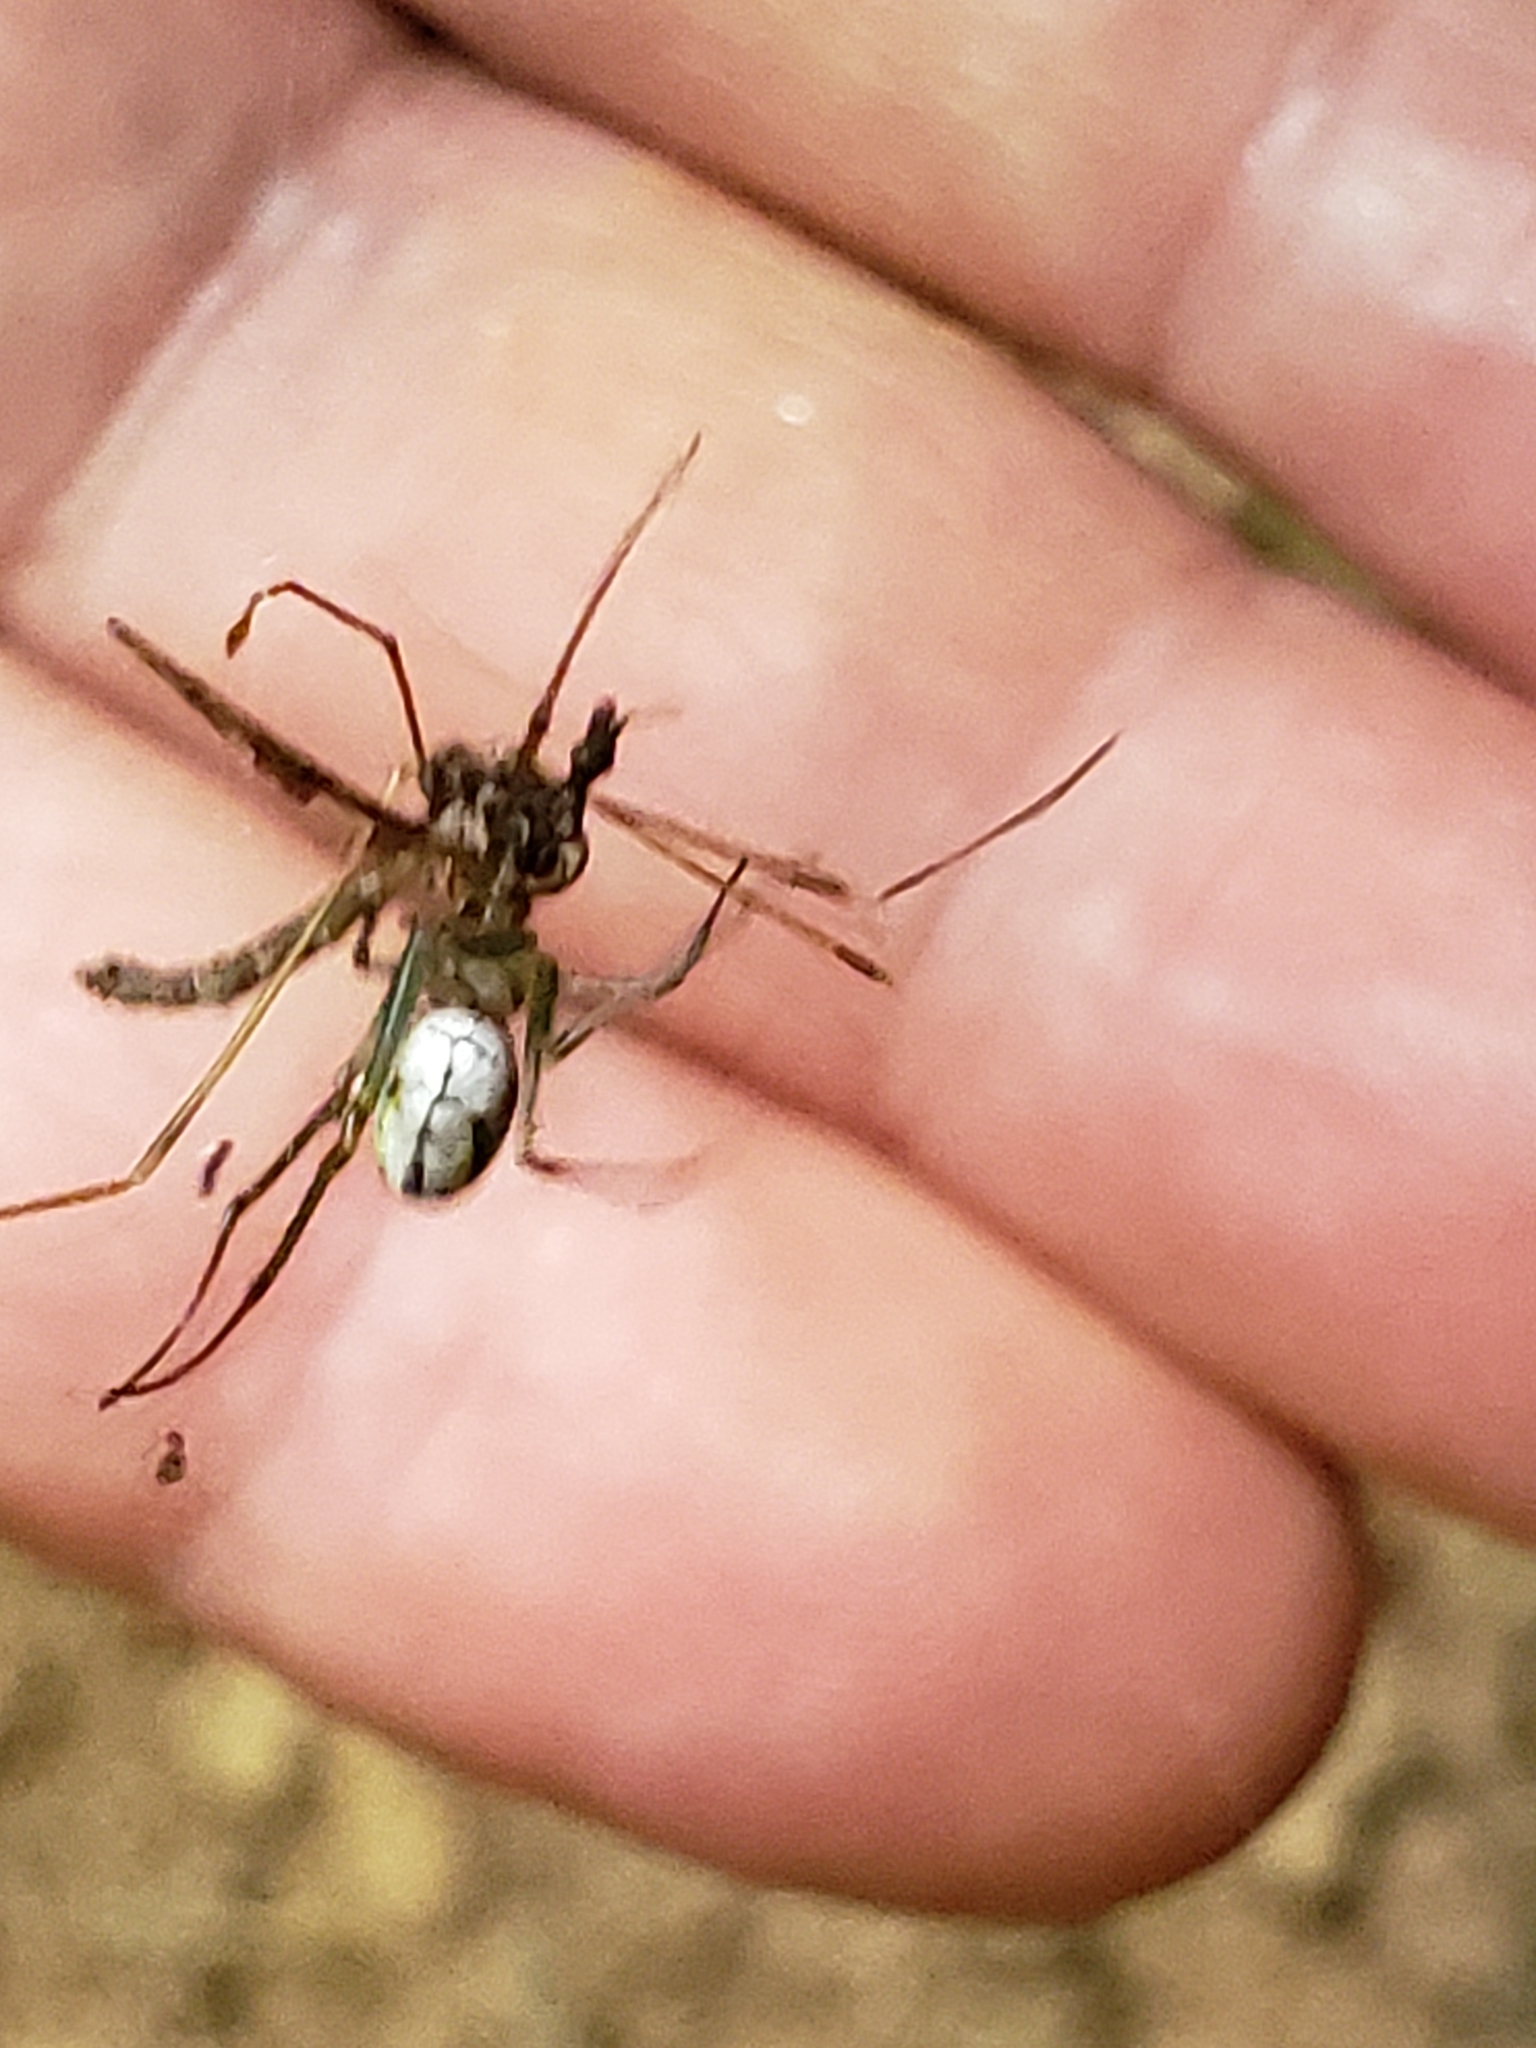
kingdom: Animalia
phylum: Arthropoda
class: Arachnida
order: Araneae
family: Tetragnathidae
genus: Leucauge
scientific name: Leucauge venusta
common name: Longjawed orb weavers
